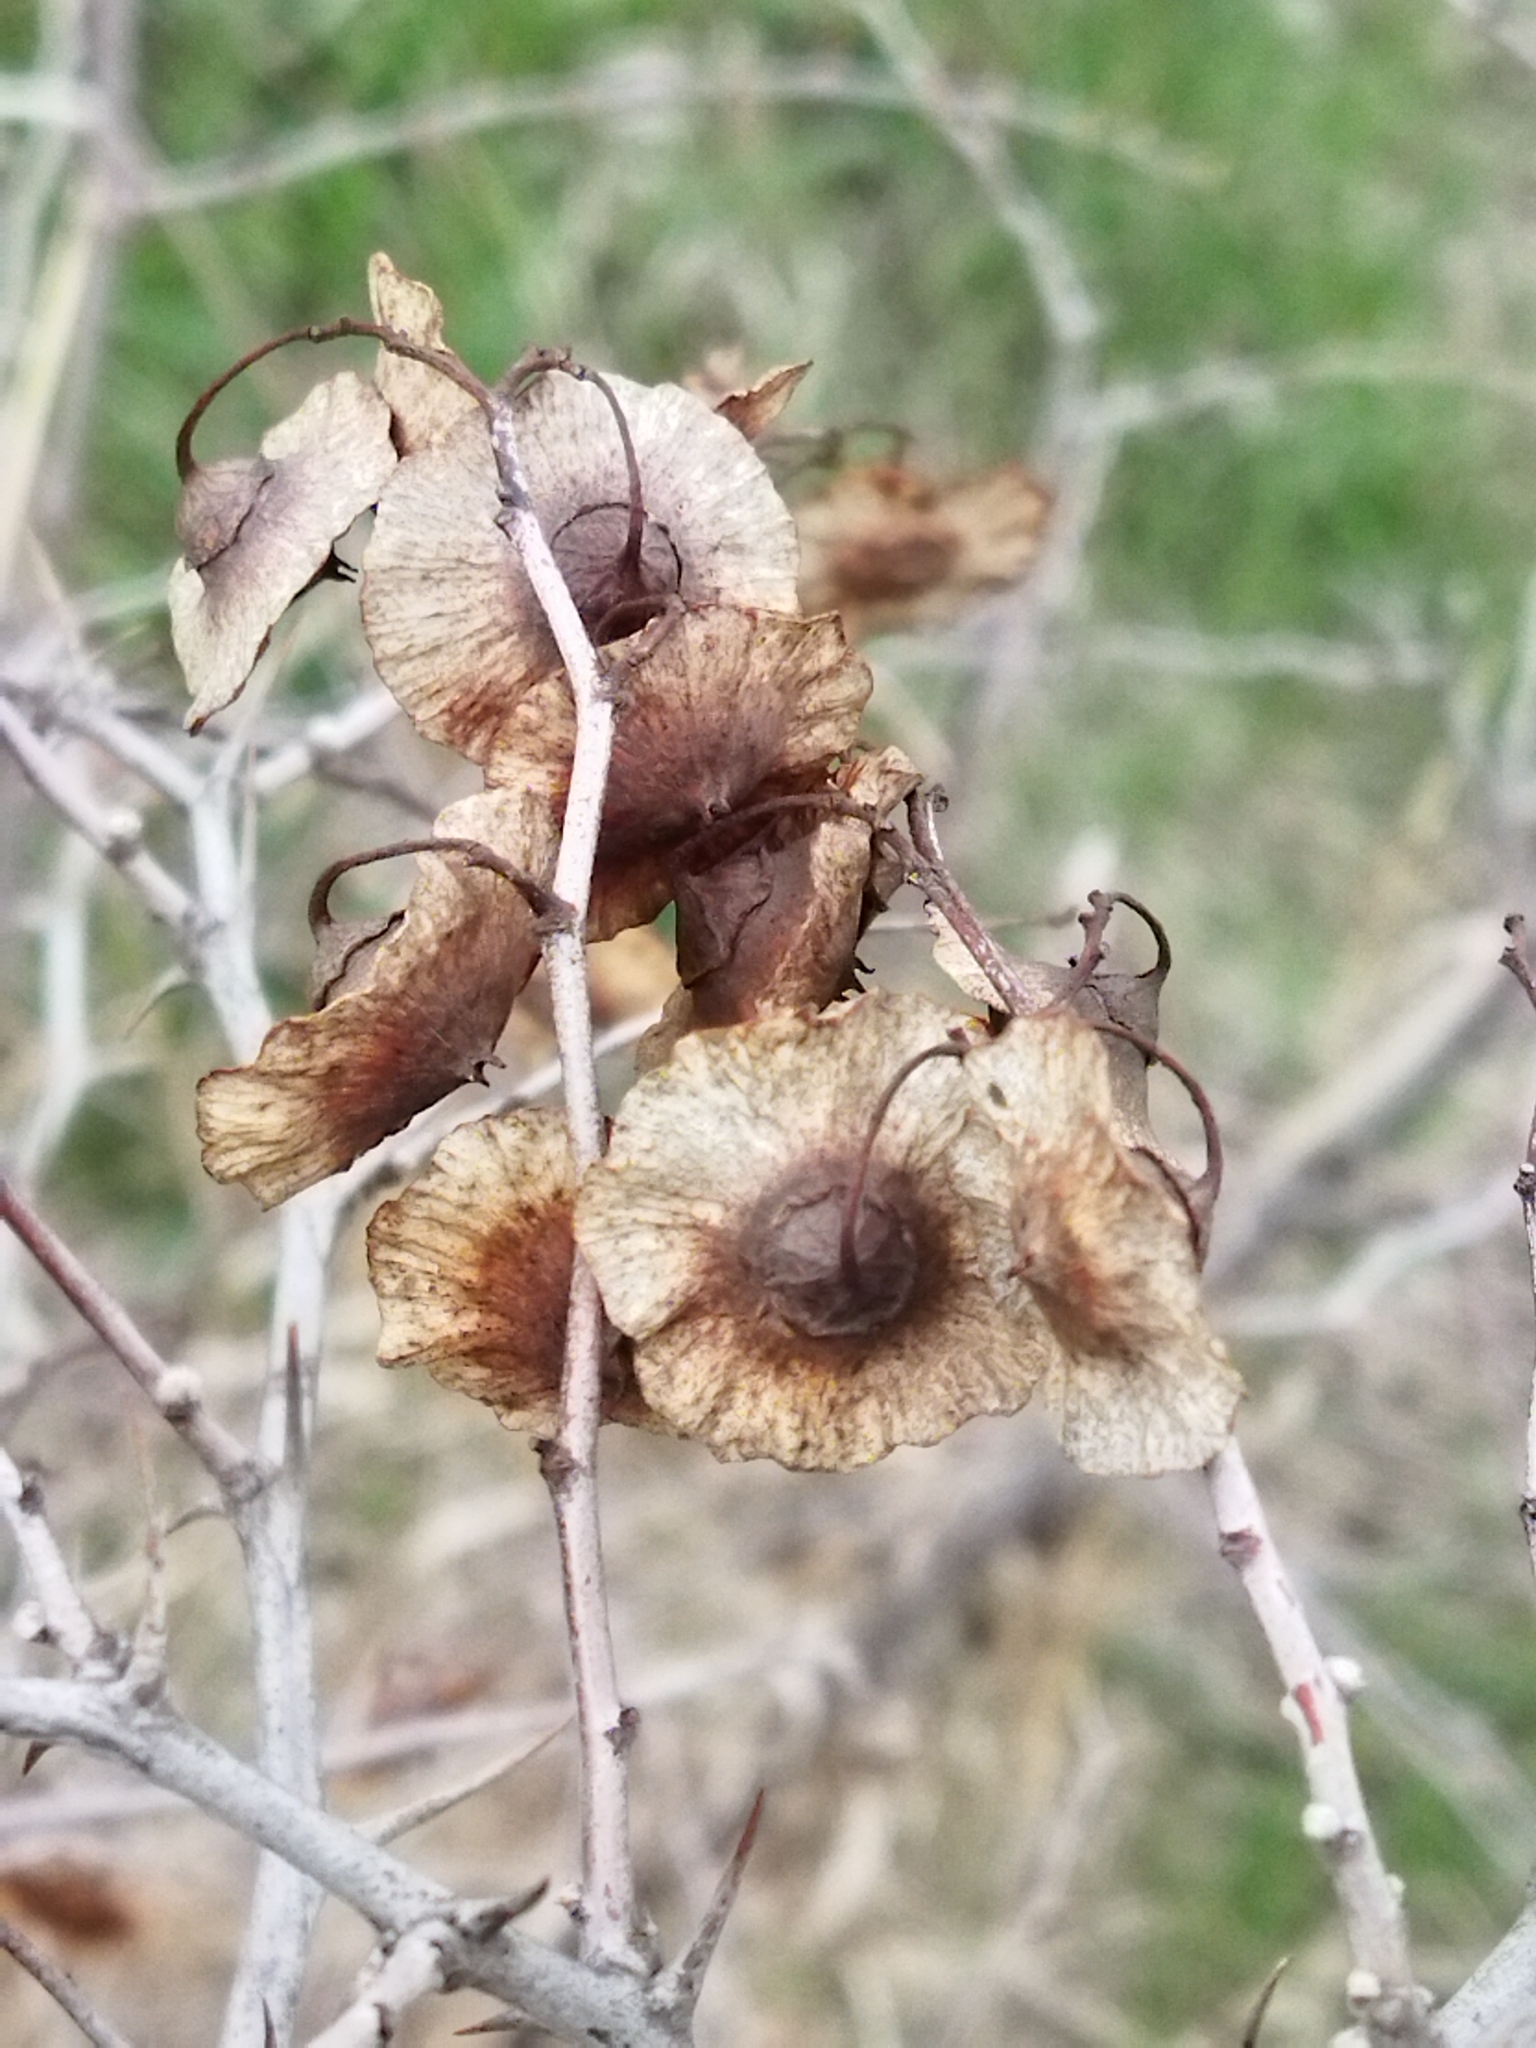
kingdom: Plantae
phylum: Tracheophyta
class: Magnoliopsida
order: Rosales
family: Rhamnaceae
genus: Paliurus
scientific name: Paliurus spina-christi
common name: Jeruselem thorn
